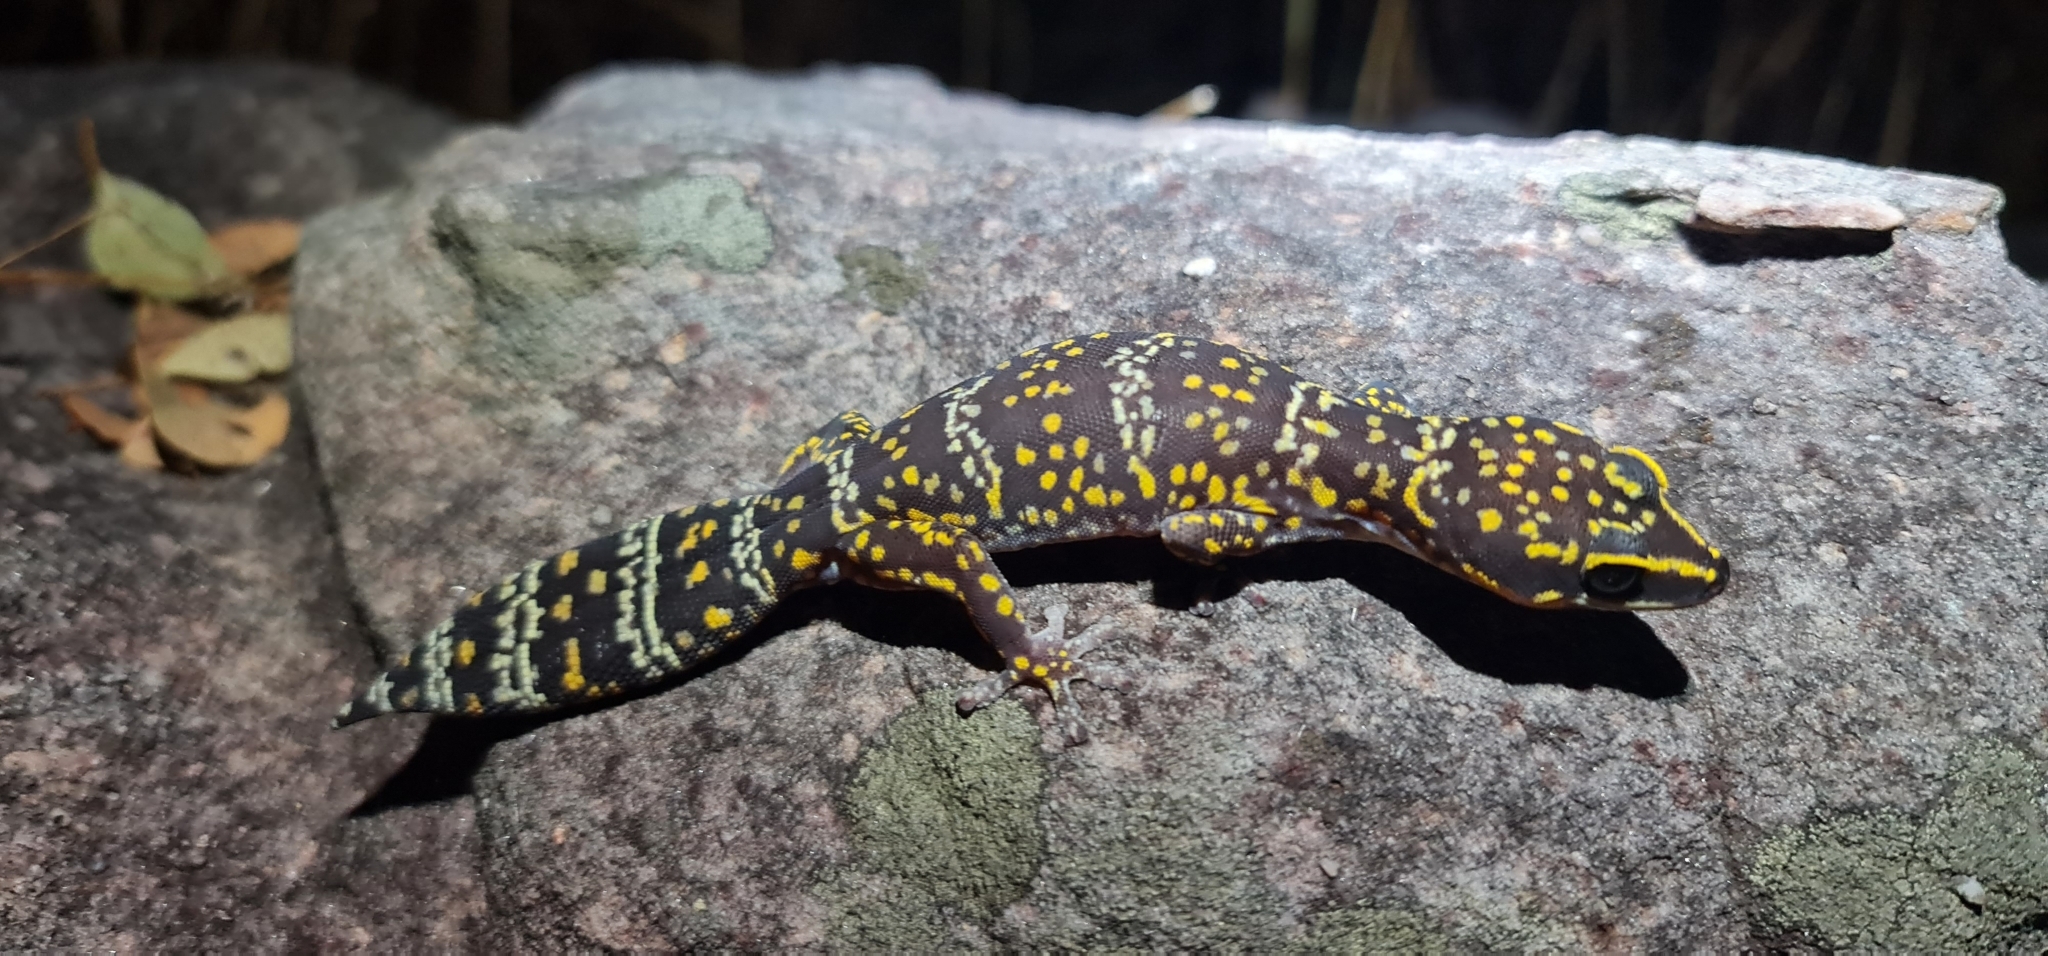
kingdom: Animalia
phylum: Chordata
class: Squamata
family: Diplodactylidae
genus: Oedura
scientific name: Oedura marmorata
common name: Marbled velvet gecko
